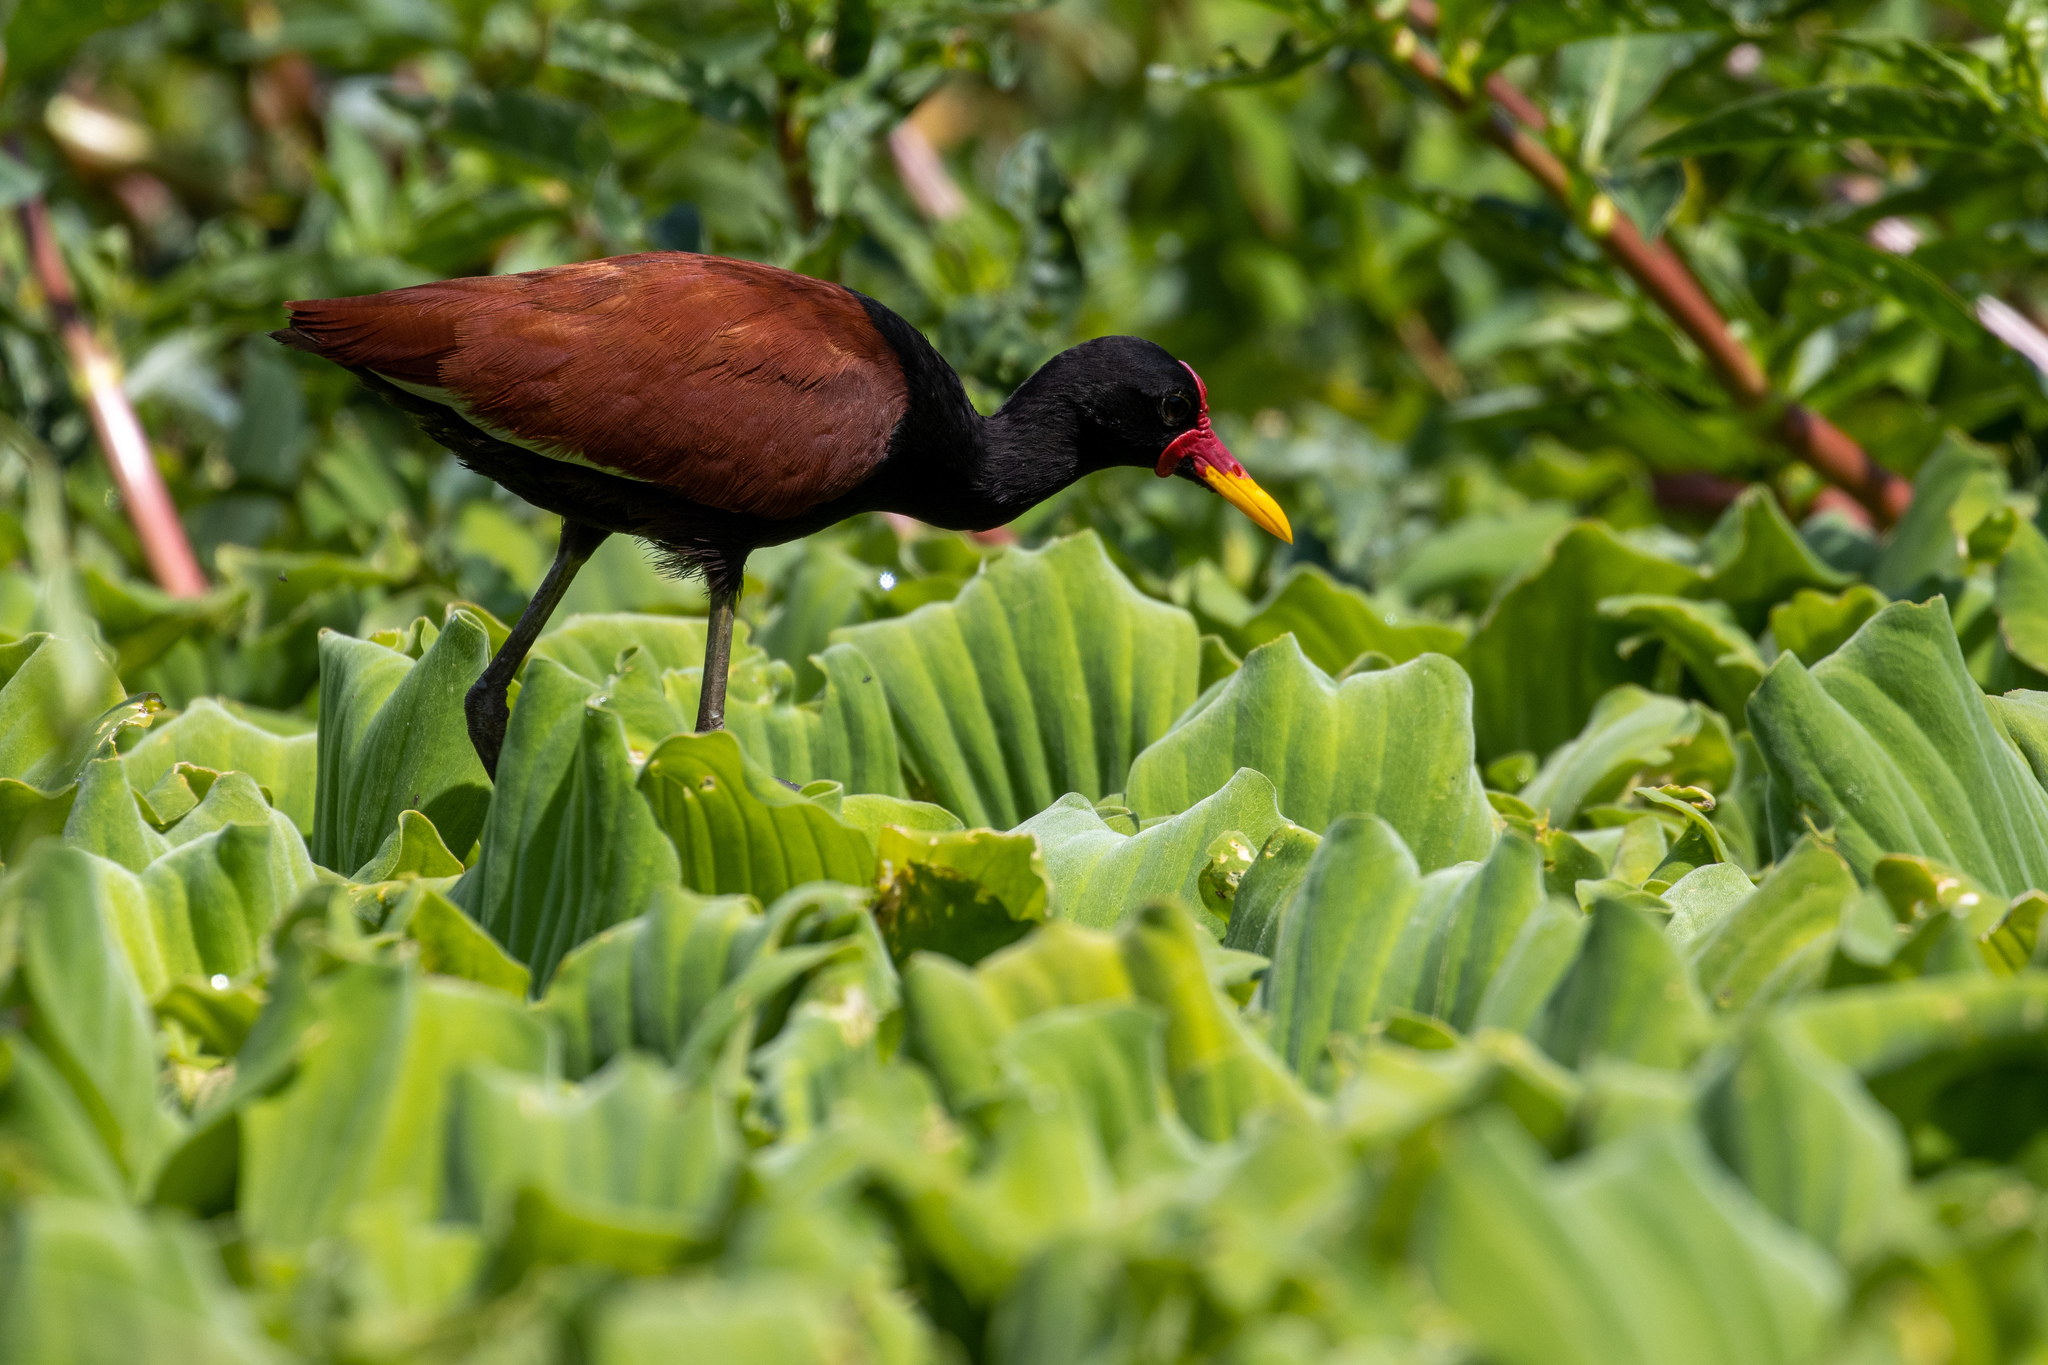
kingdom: Animalia
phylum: Chordata
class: Aves
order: Charadriiformes
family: Jacanidae
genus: Jacana
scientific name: Jacana jacana
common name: Wattled jacana
